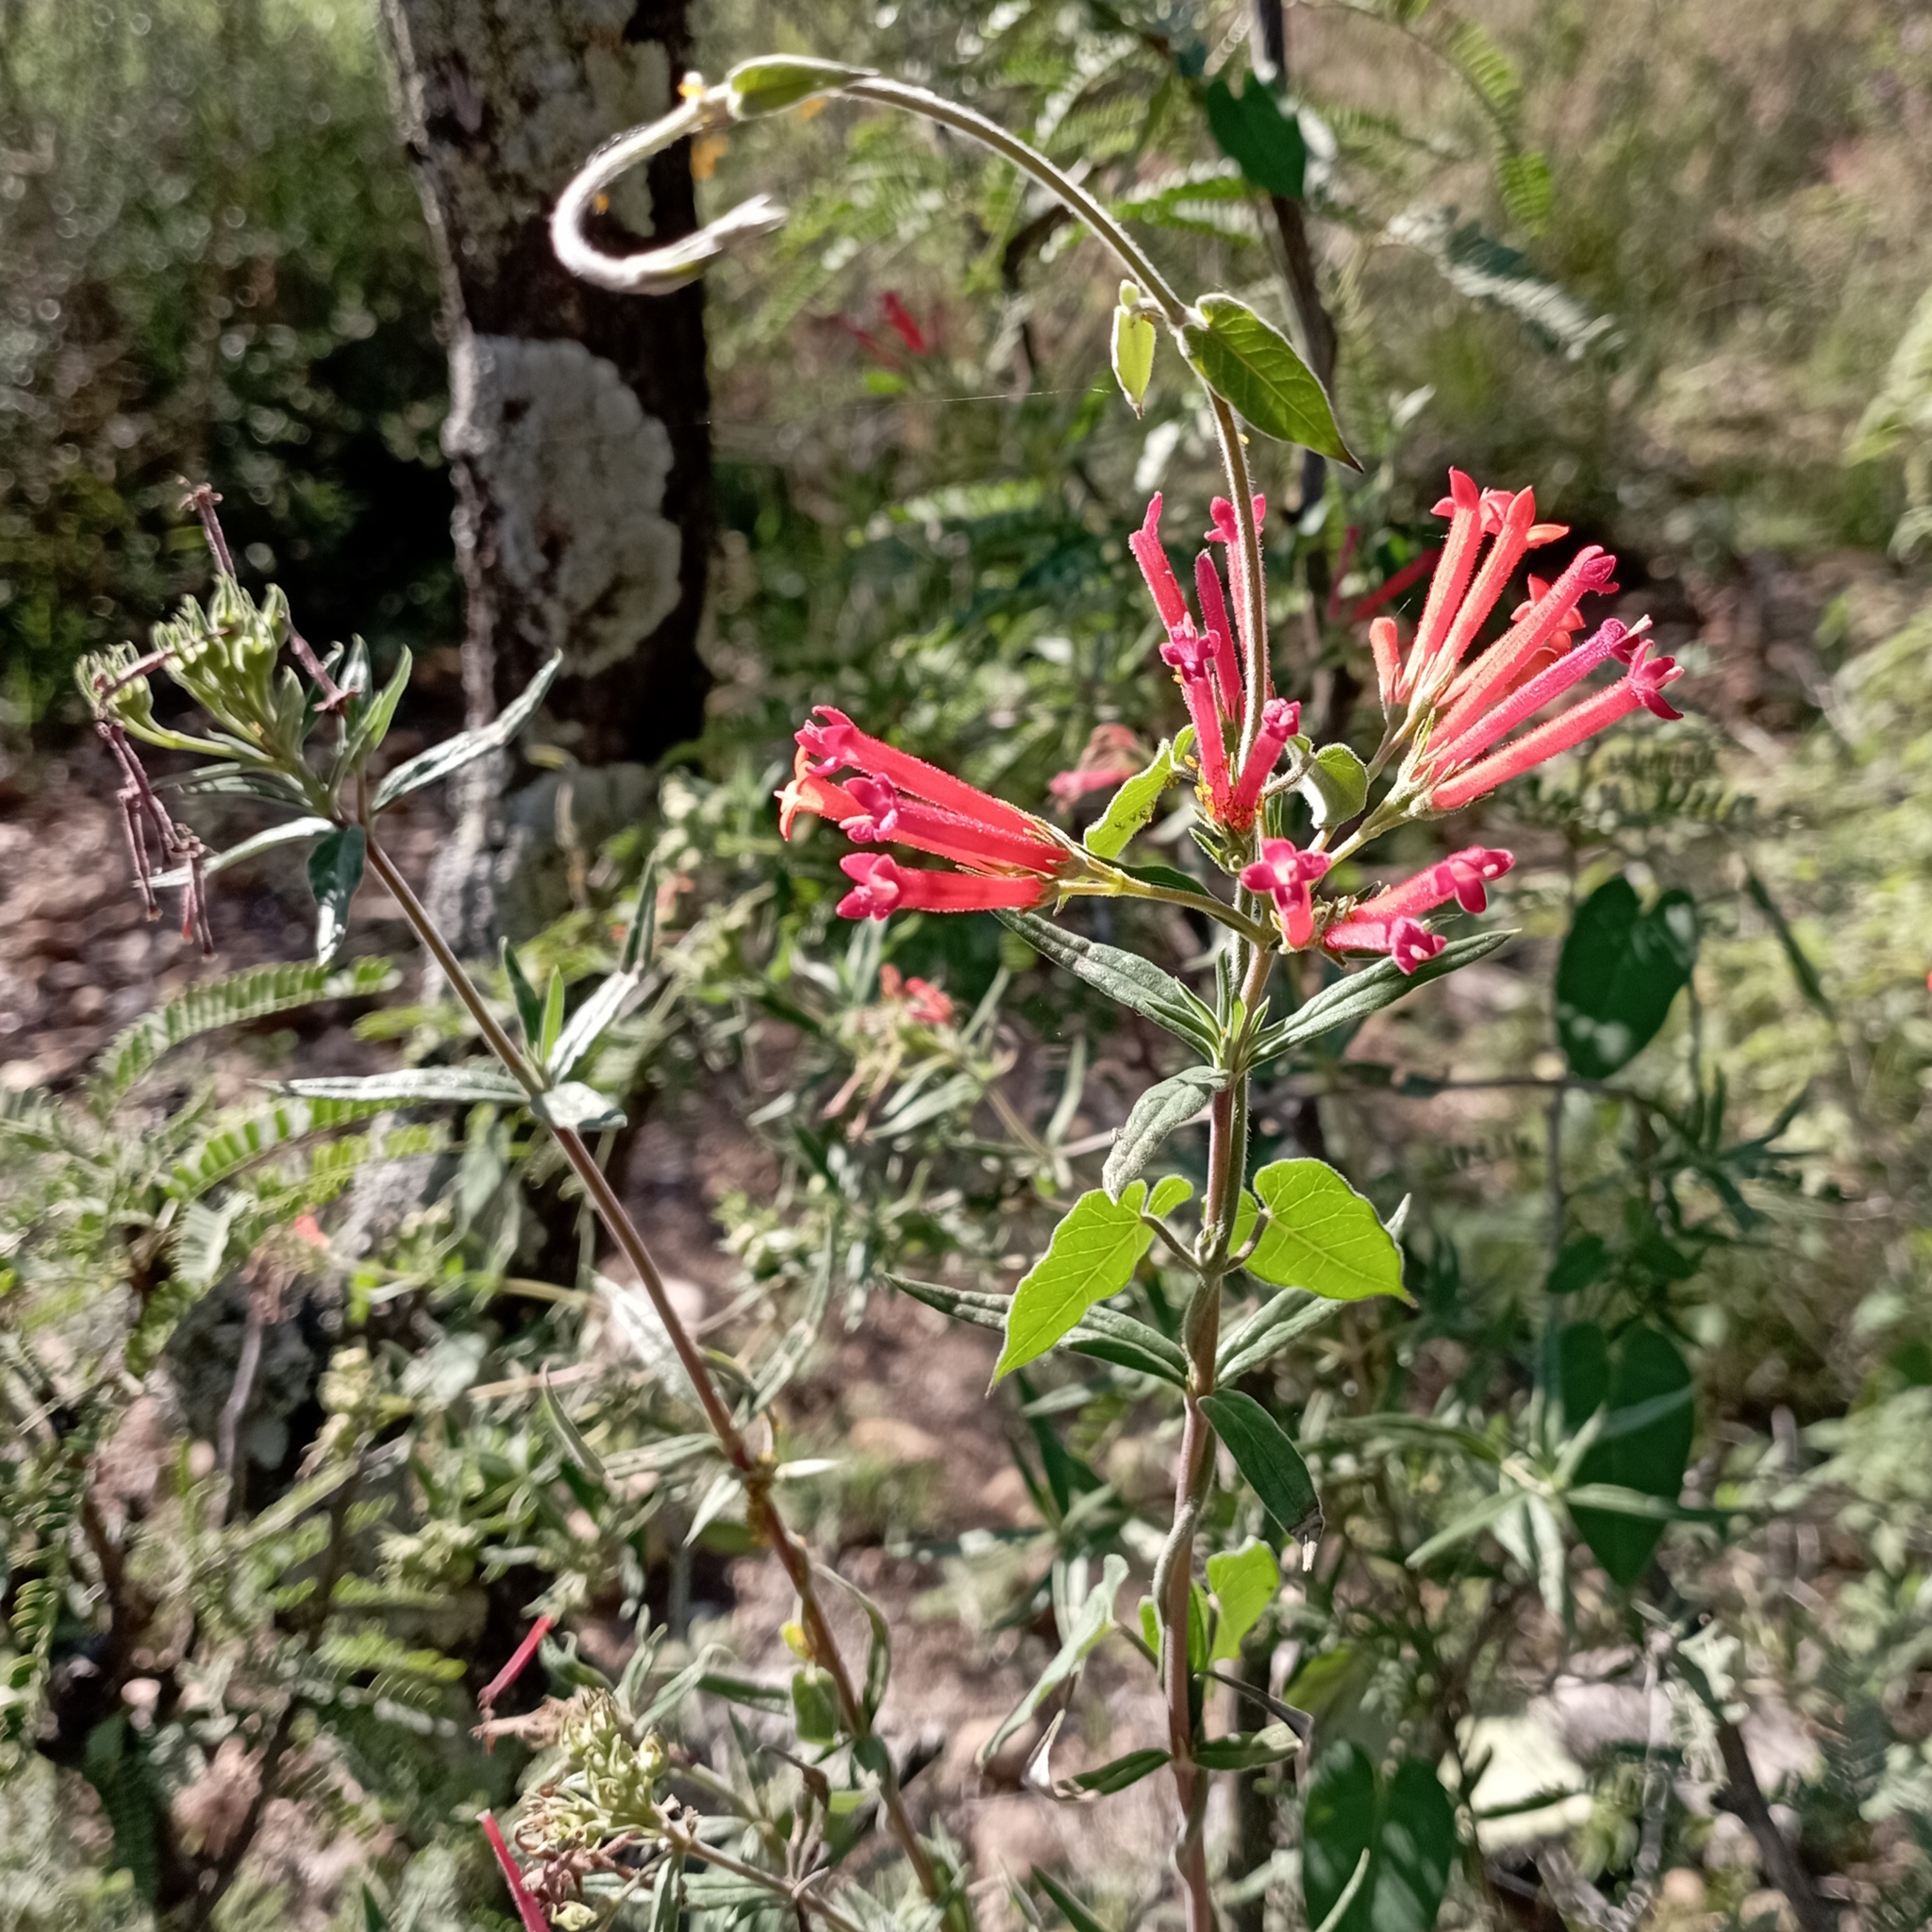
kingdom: Plantae
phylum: Tracheophyta
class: Magnoliopsida
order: Gentianales
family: Rubiaceae
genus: Bouvardia
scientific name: Bouvardia ternifolia
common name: Scarlet bouvardia
